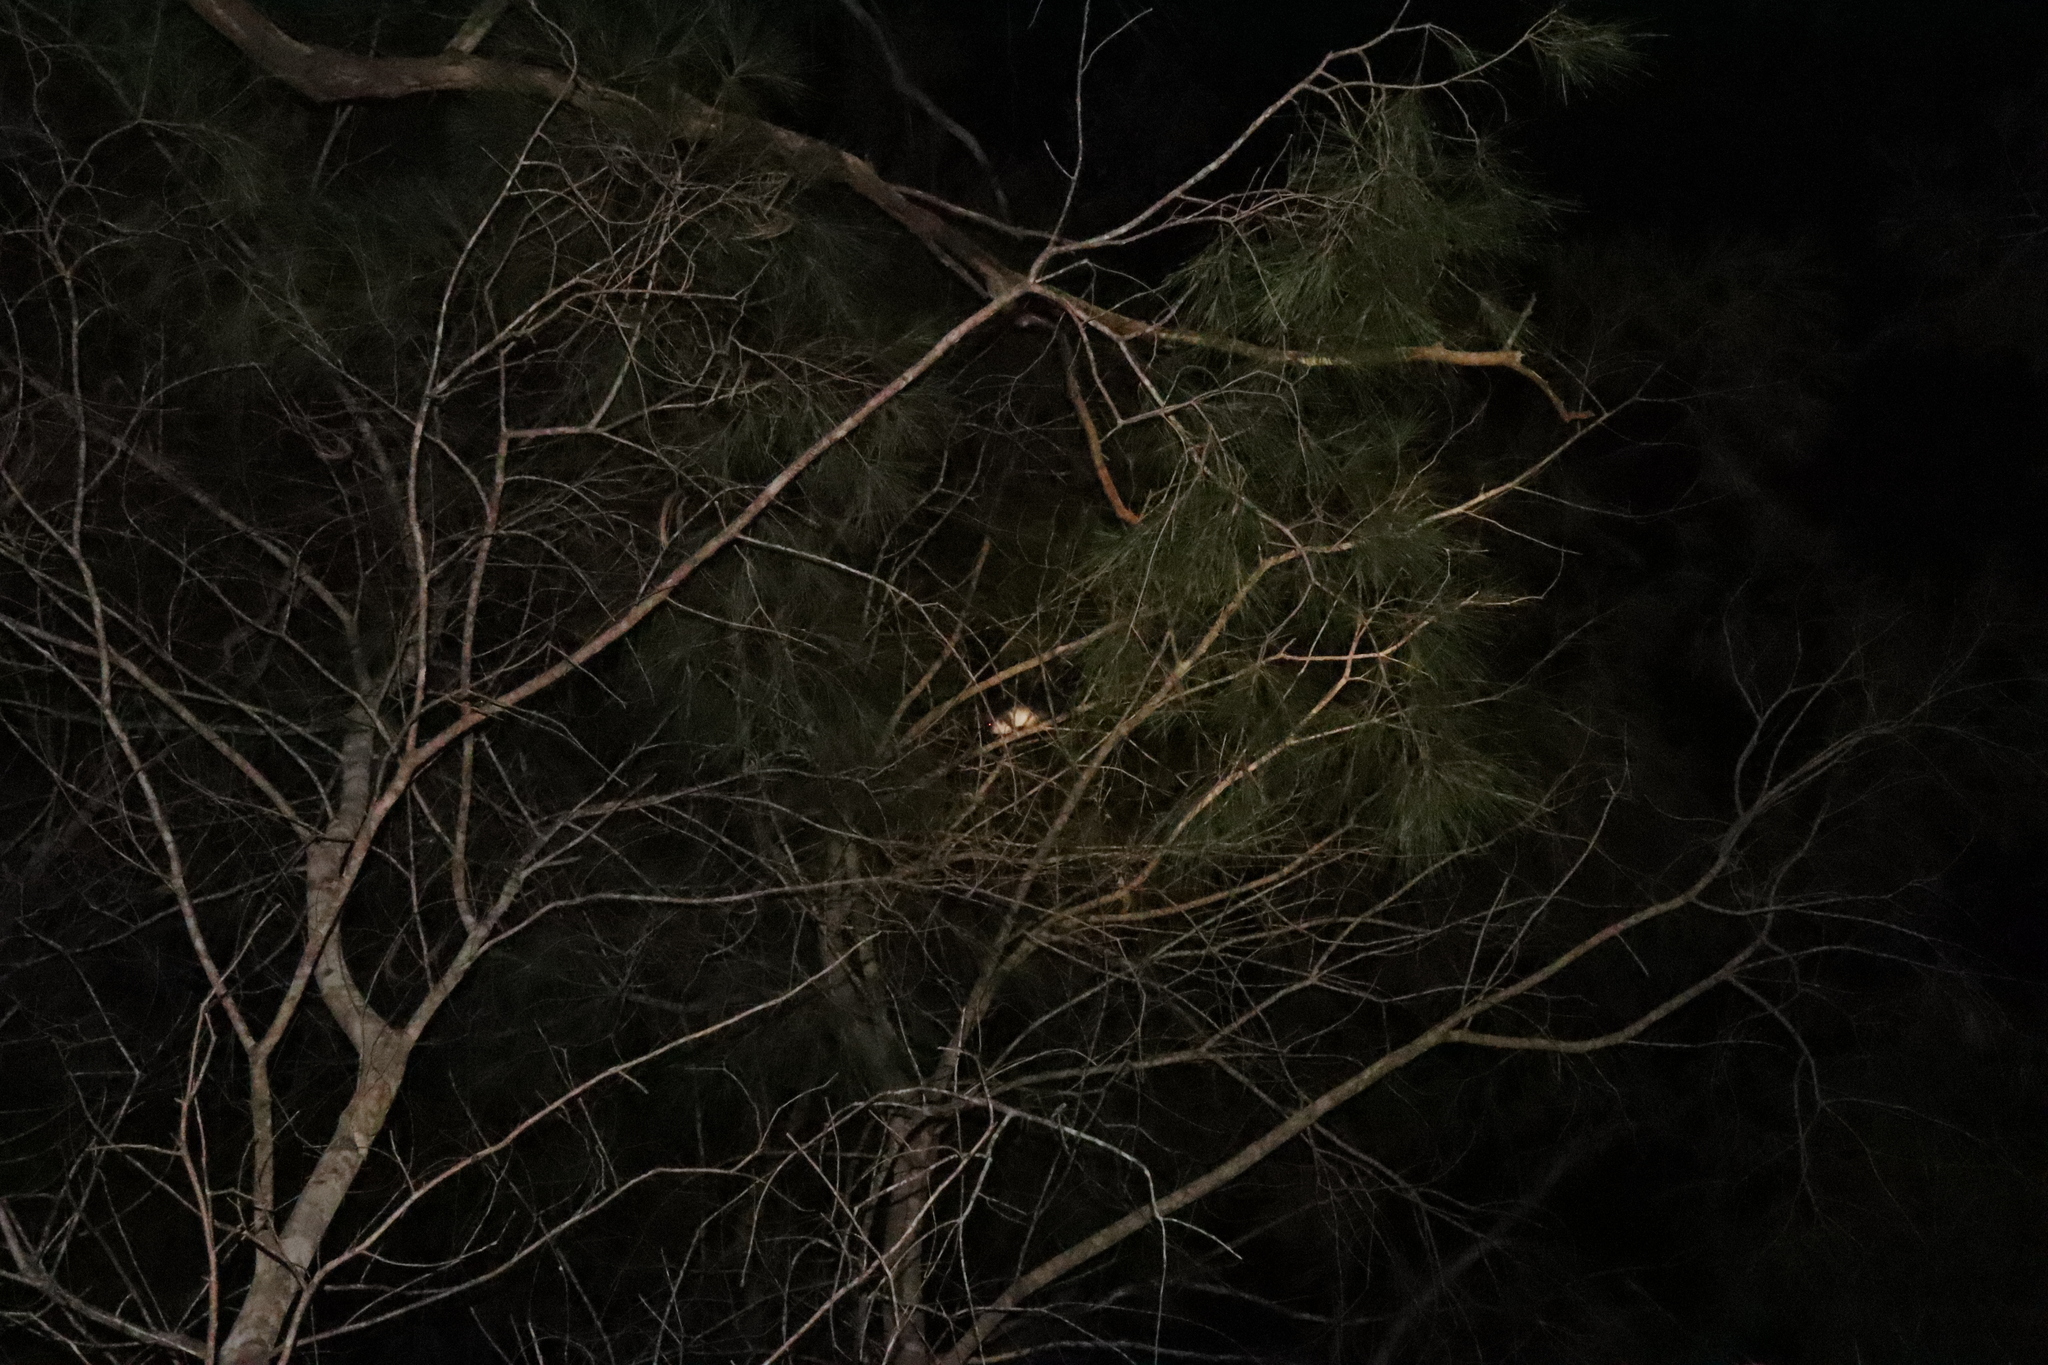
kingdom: Animalia
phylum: Chordata
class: Mammalia
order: Diprotodontia
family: Pseudocheiridae
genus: Pseudocheirus
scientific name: Pseudocheirus peregrinus
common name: Common ringtail possum
